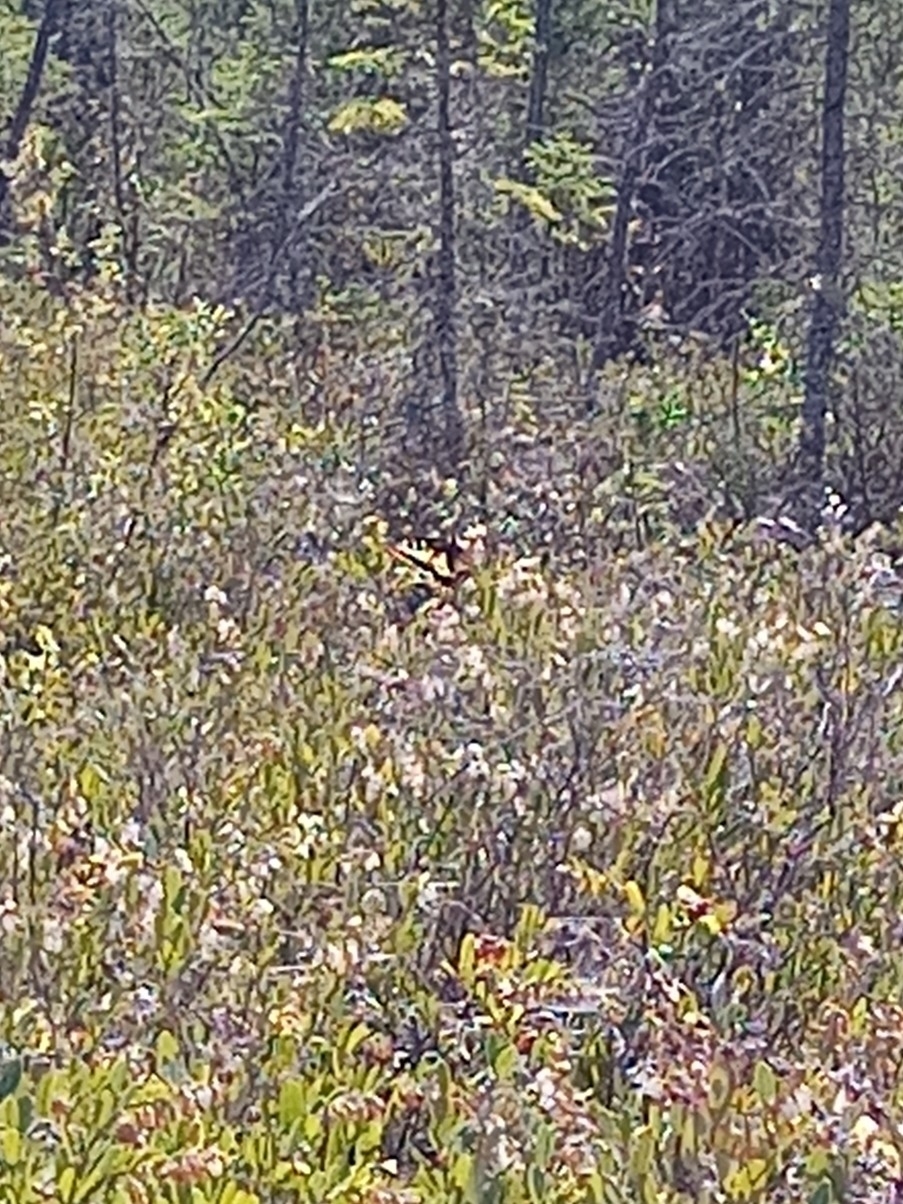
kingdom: Animalia
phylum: Arthropoda
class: Insecta
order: Lepidoptera
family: Papilionidae
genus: Papilio
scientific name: Papilio machaon
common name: Swallowtail
